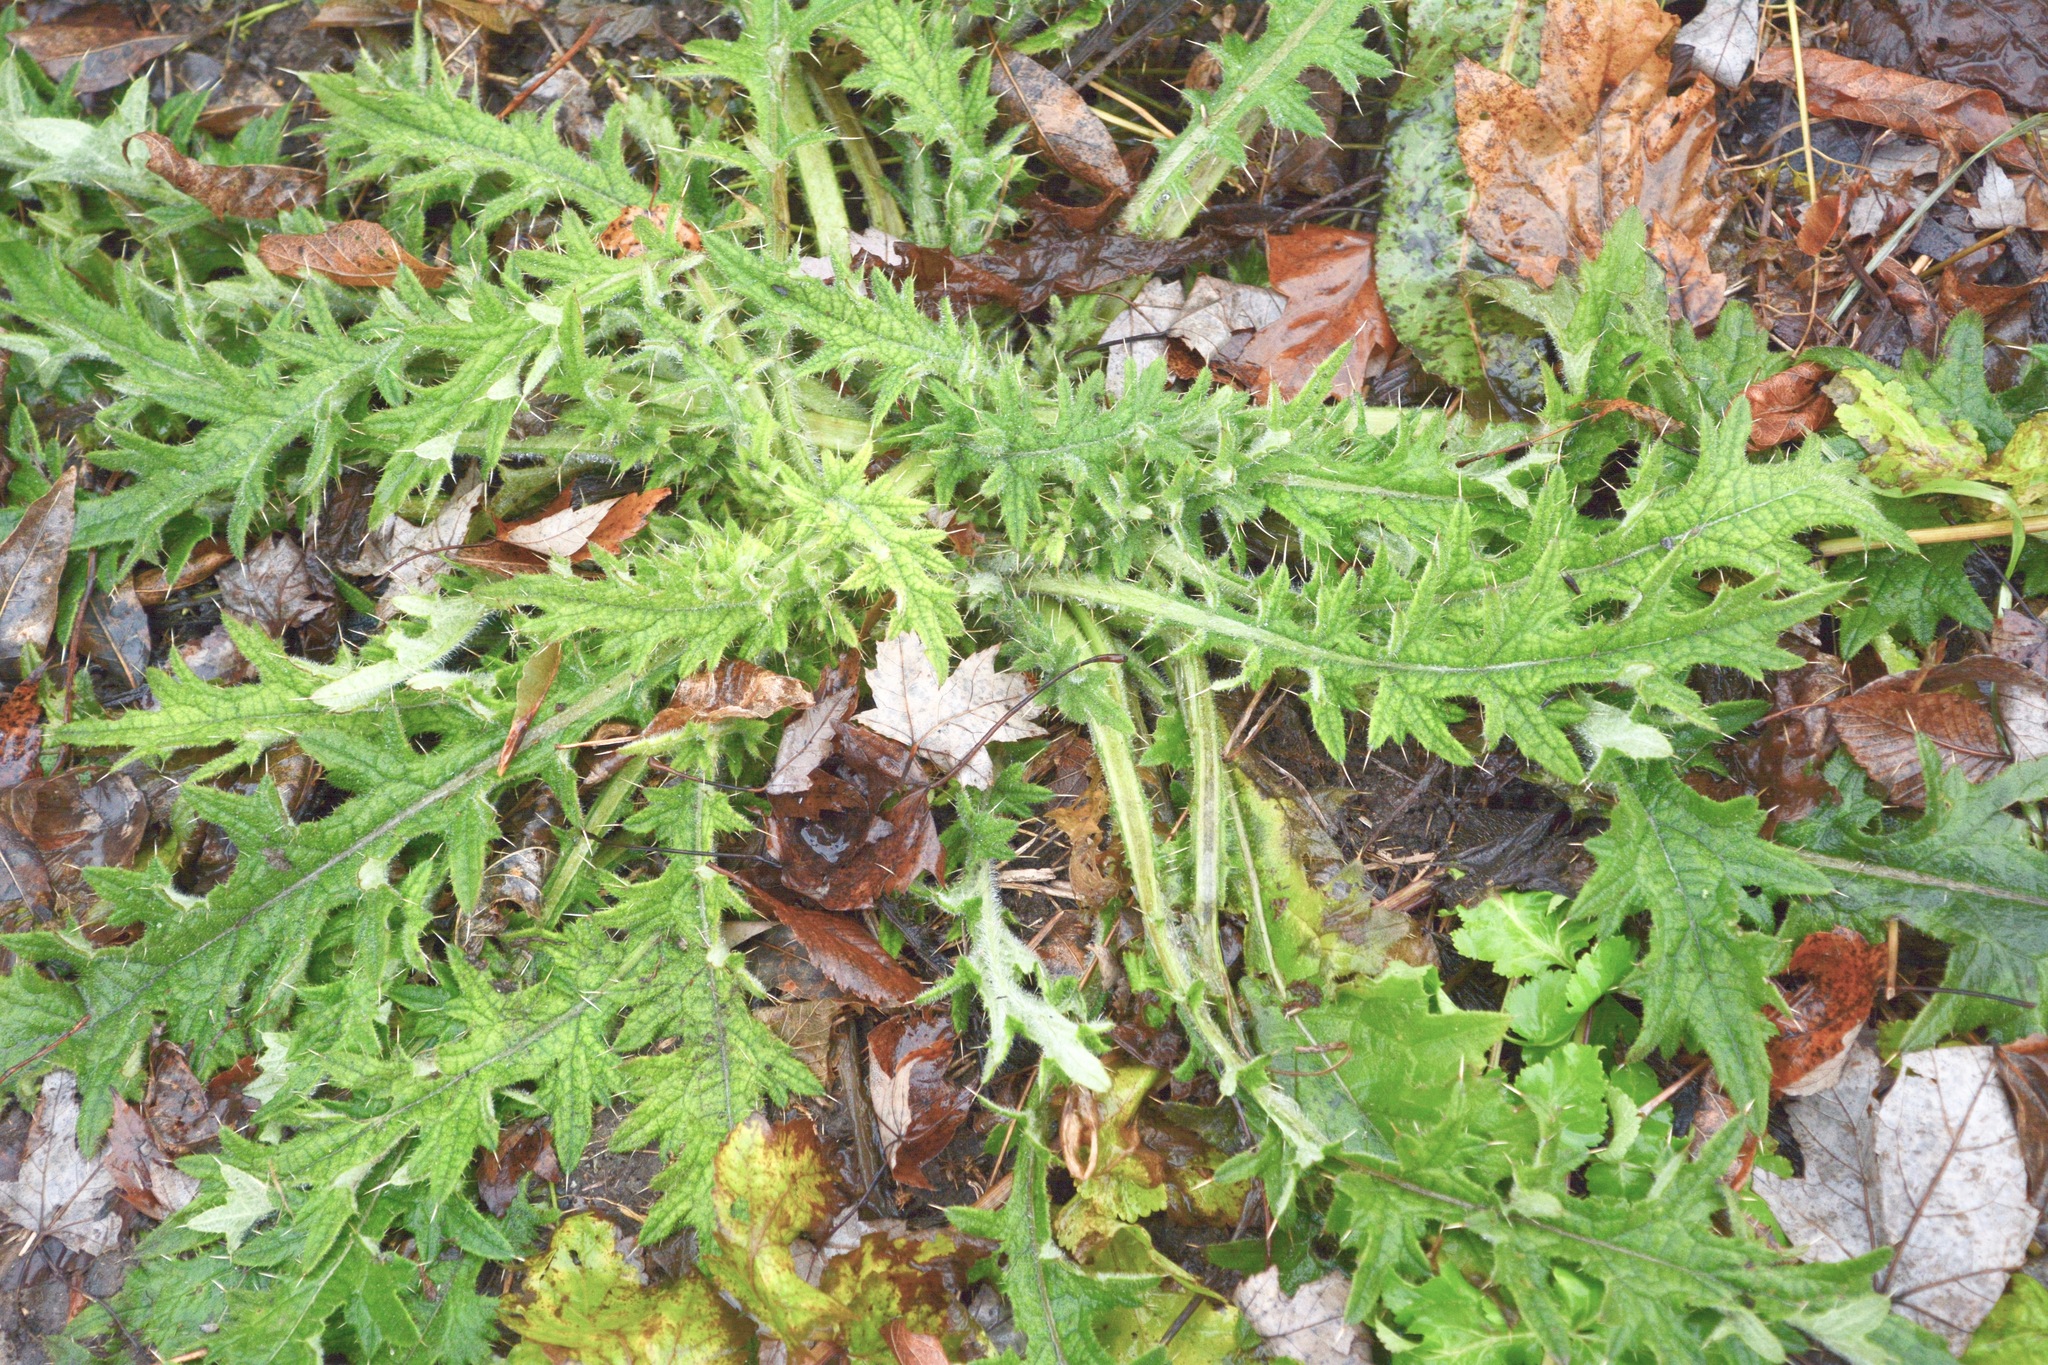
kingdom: Plantae
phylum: Tracheophyta
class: Magnoliopsida
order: Asterales
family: Asteraceae
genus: Cirsium
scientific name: Cirsium vulgare
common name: Bull thistle
